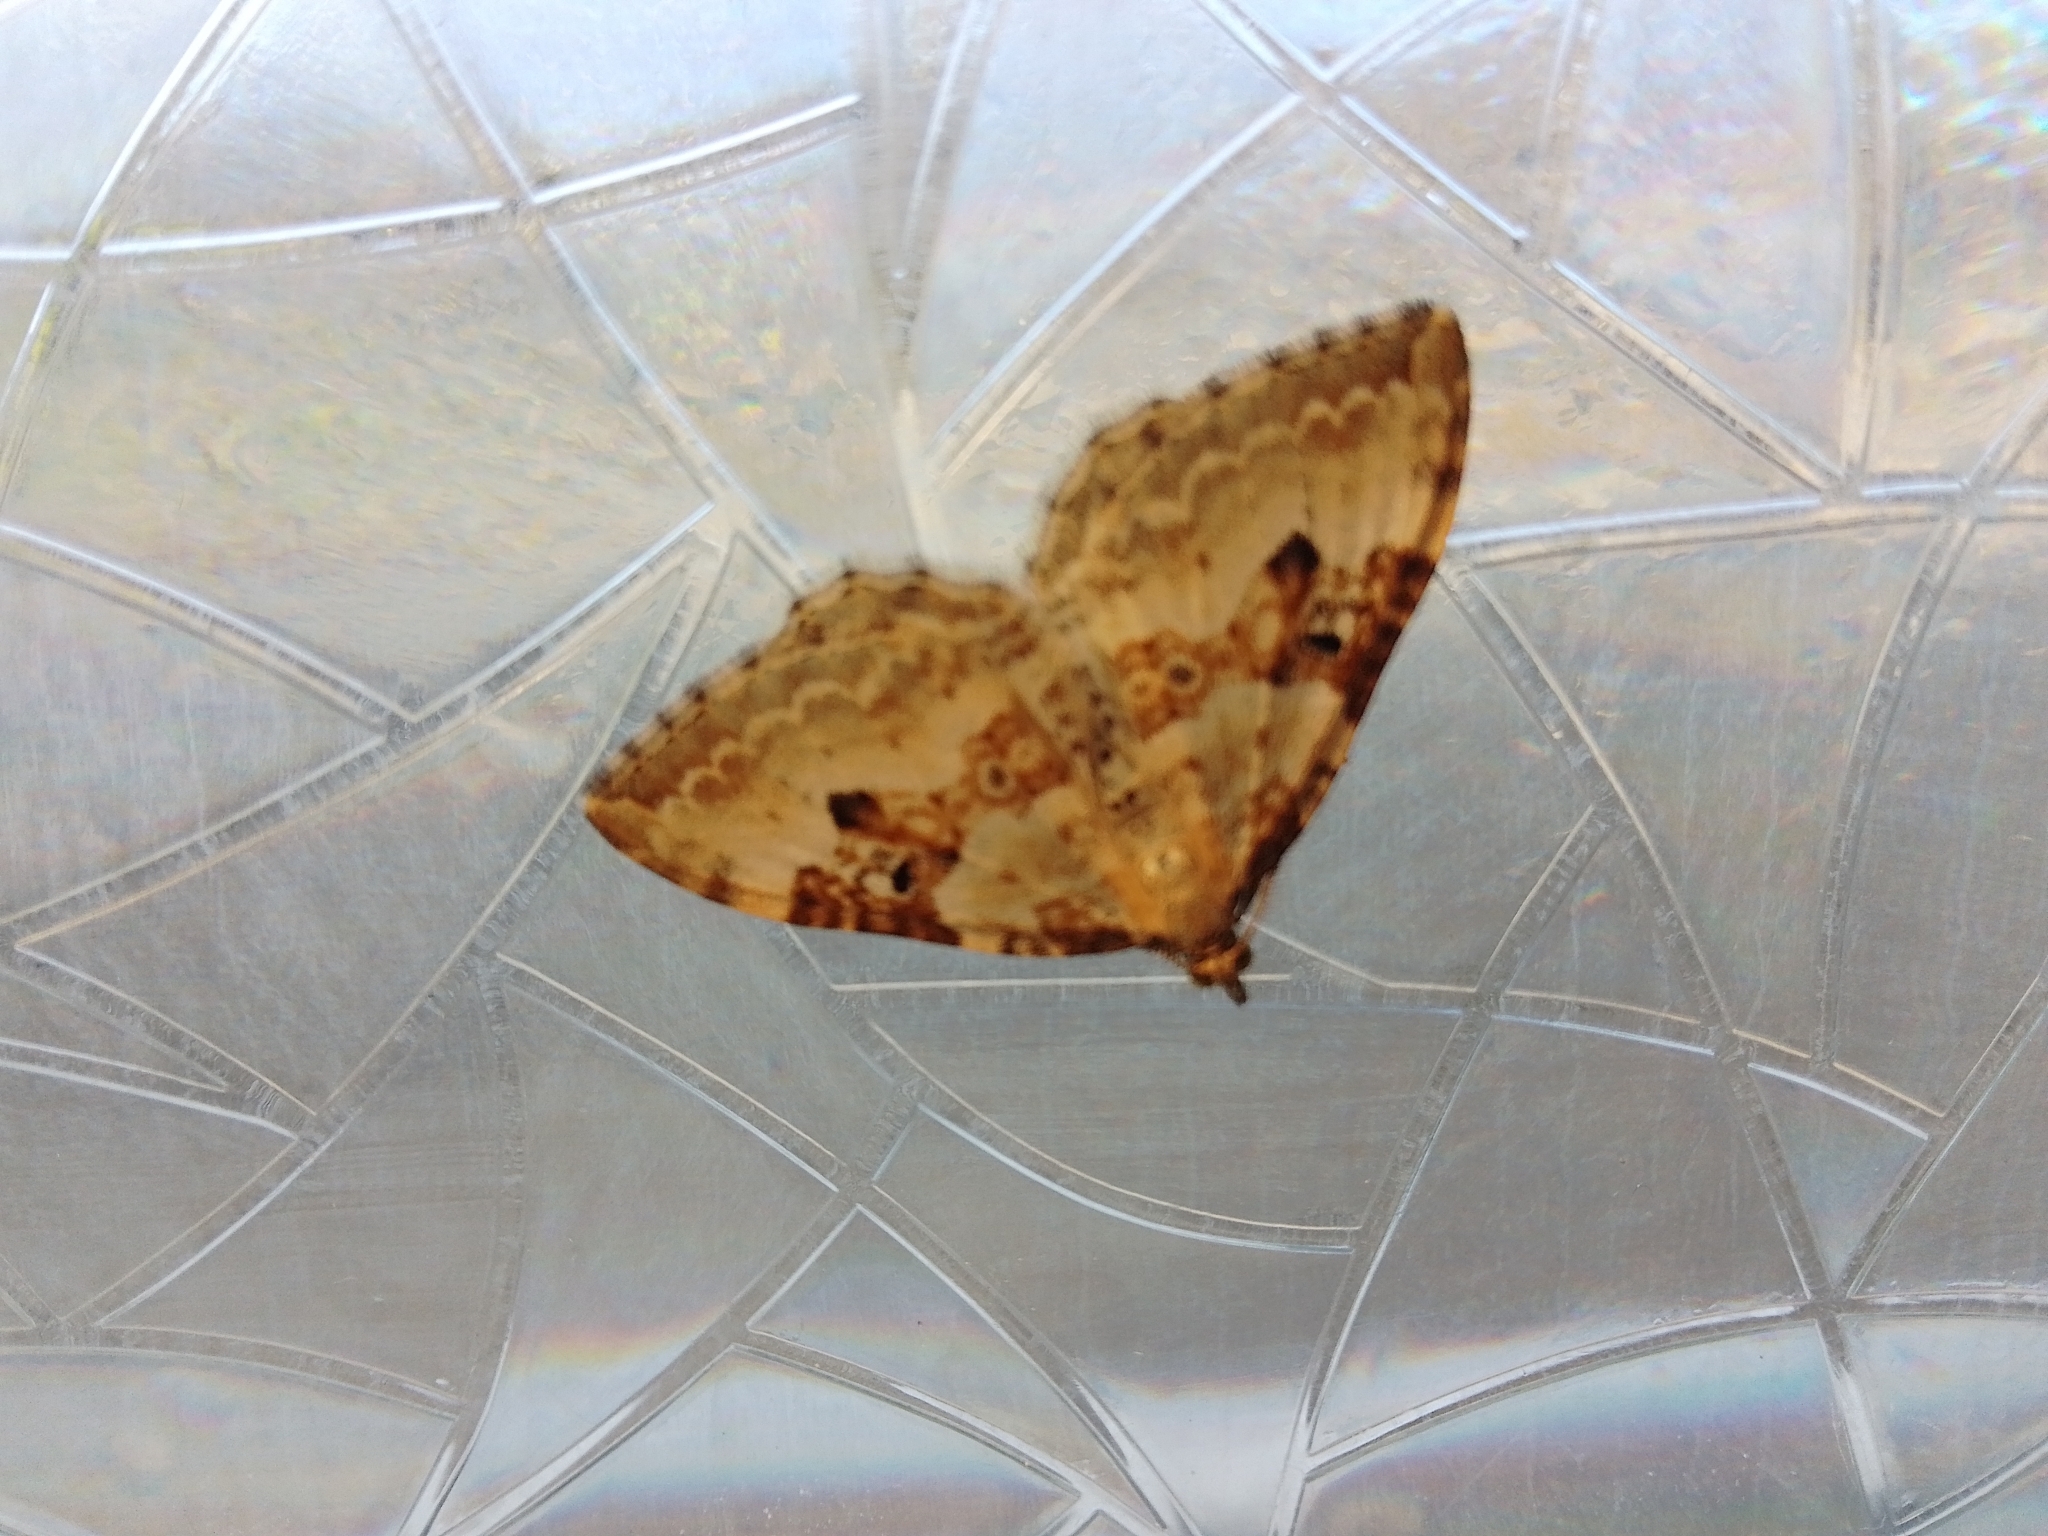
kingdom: Animalia
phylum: Arthropoda
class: Insecta
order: Lepidoptera
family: Geometridae
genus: Xanthorhoe
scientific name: Xanthorhoe montanata
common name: Silver-ground carpet
